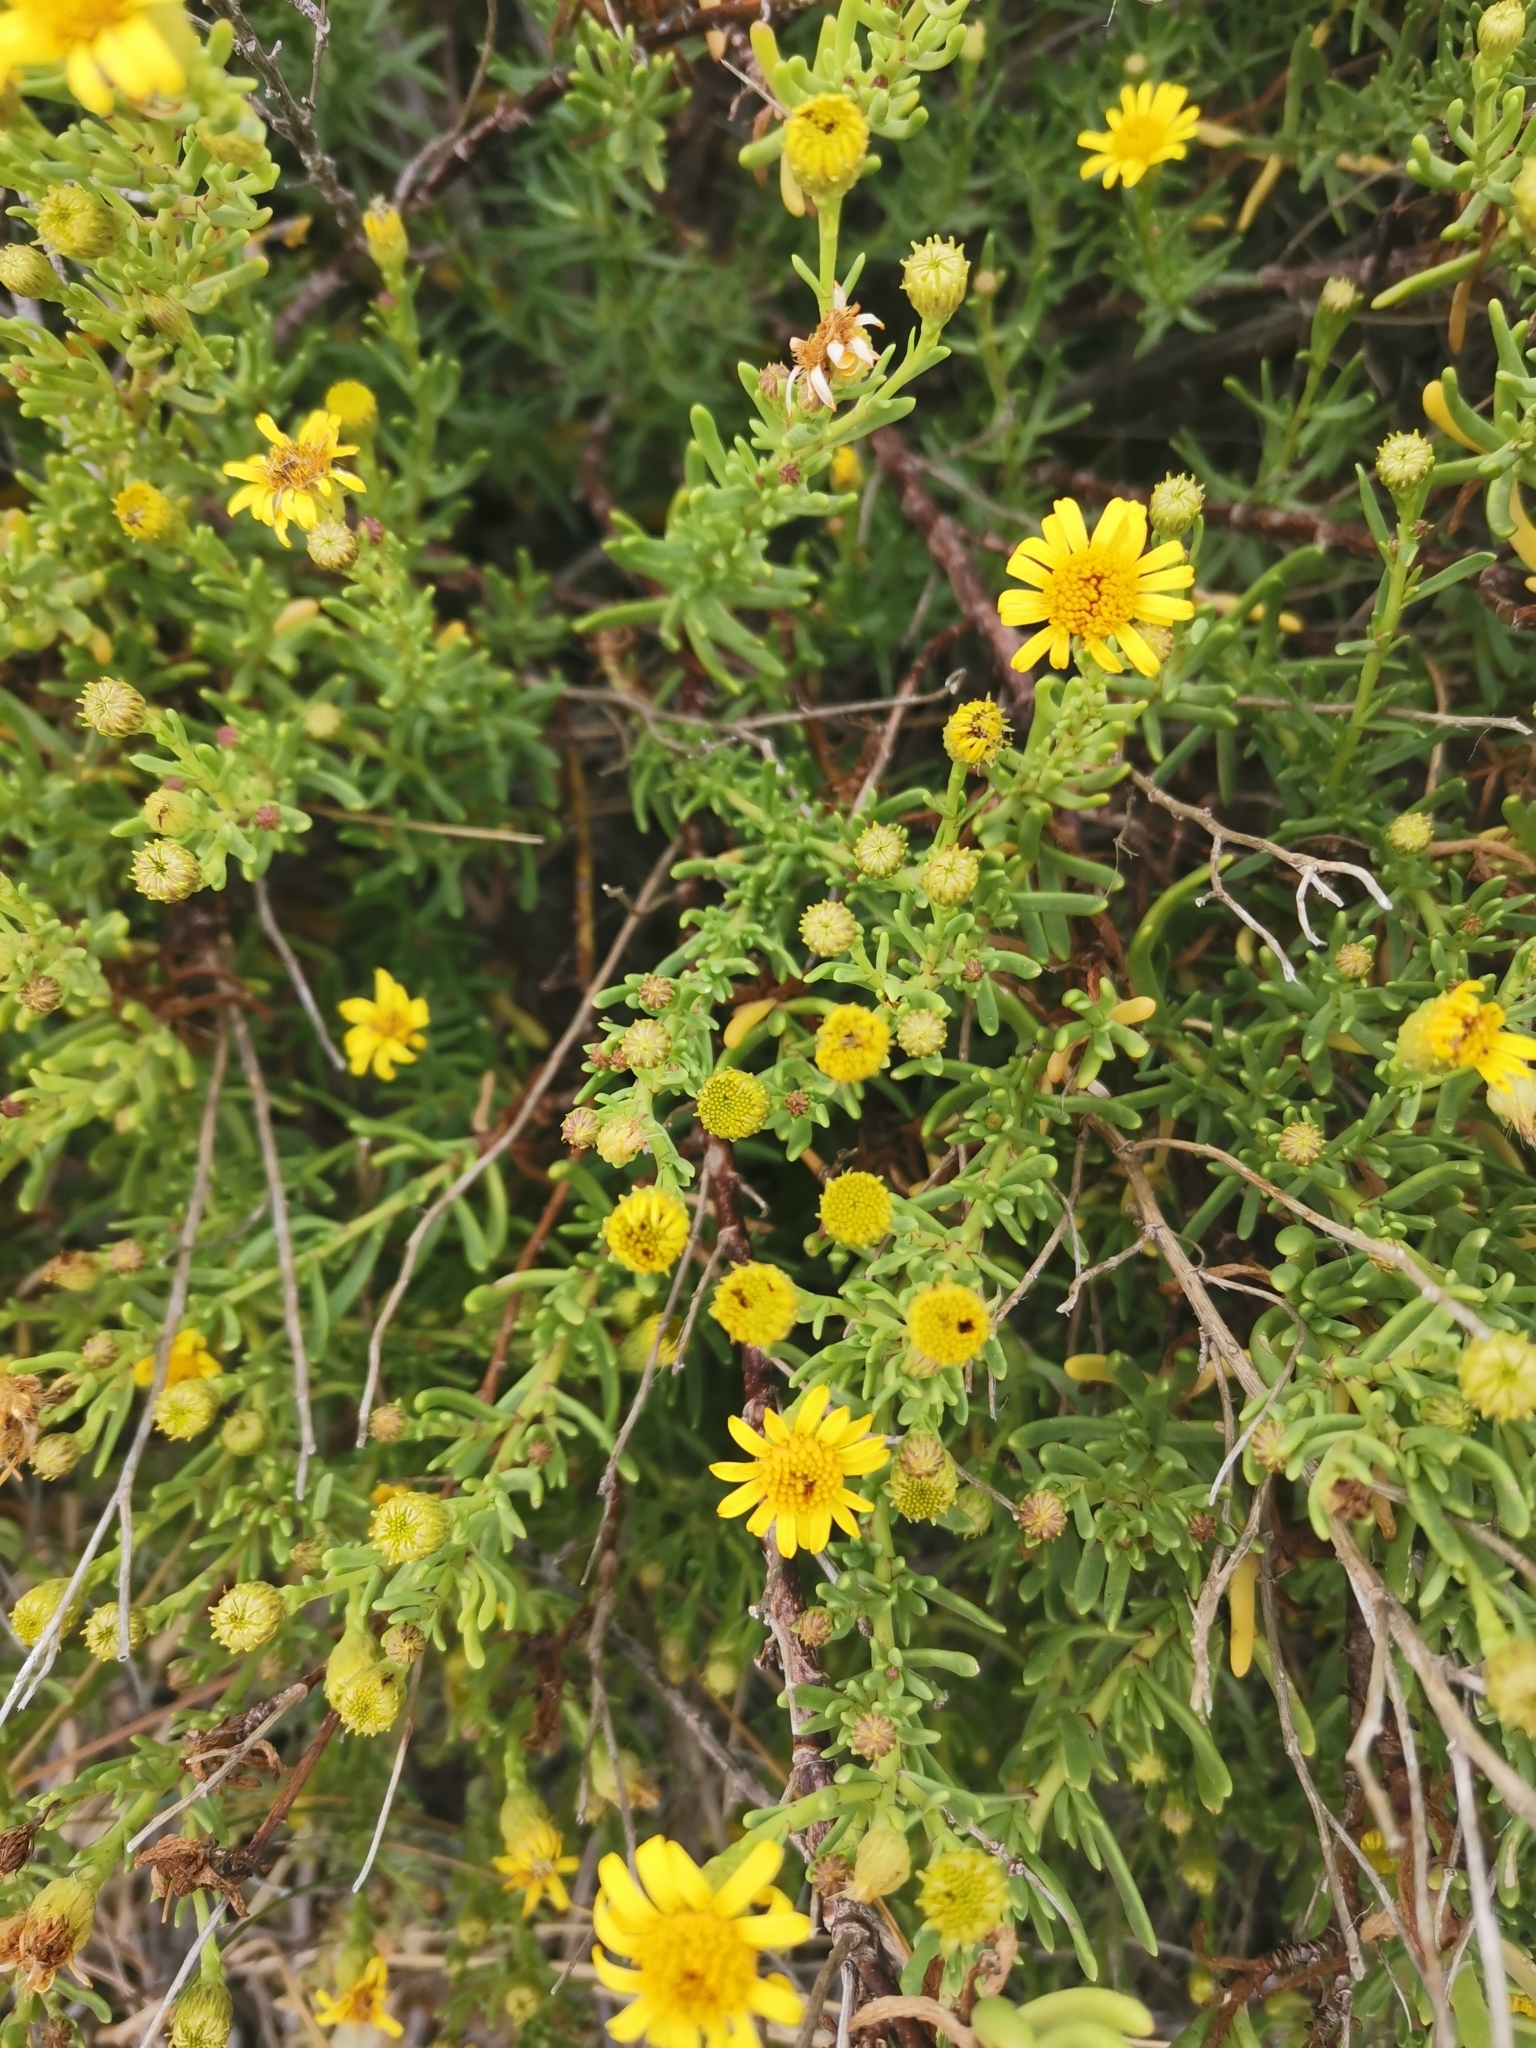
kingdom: Plantae
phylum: Tracheophyta
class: Magnoliopsida
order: Asterales
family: Asteraceae
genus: Limbarda
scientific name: Limbarda crithmoides
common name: Golden samphire
